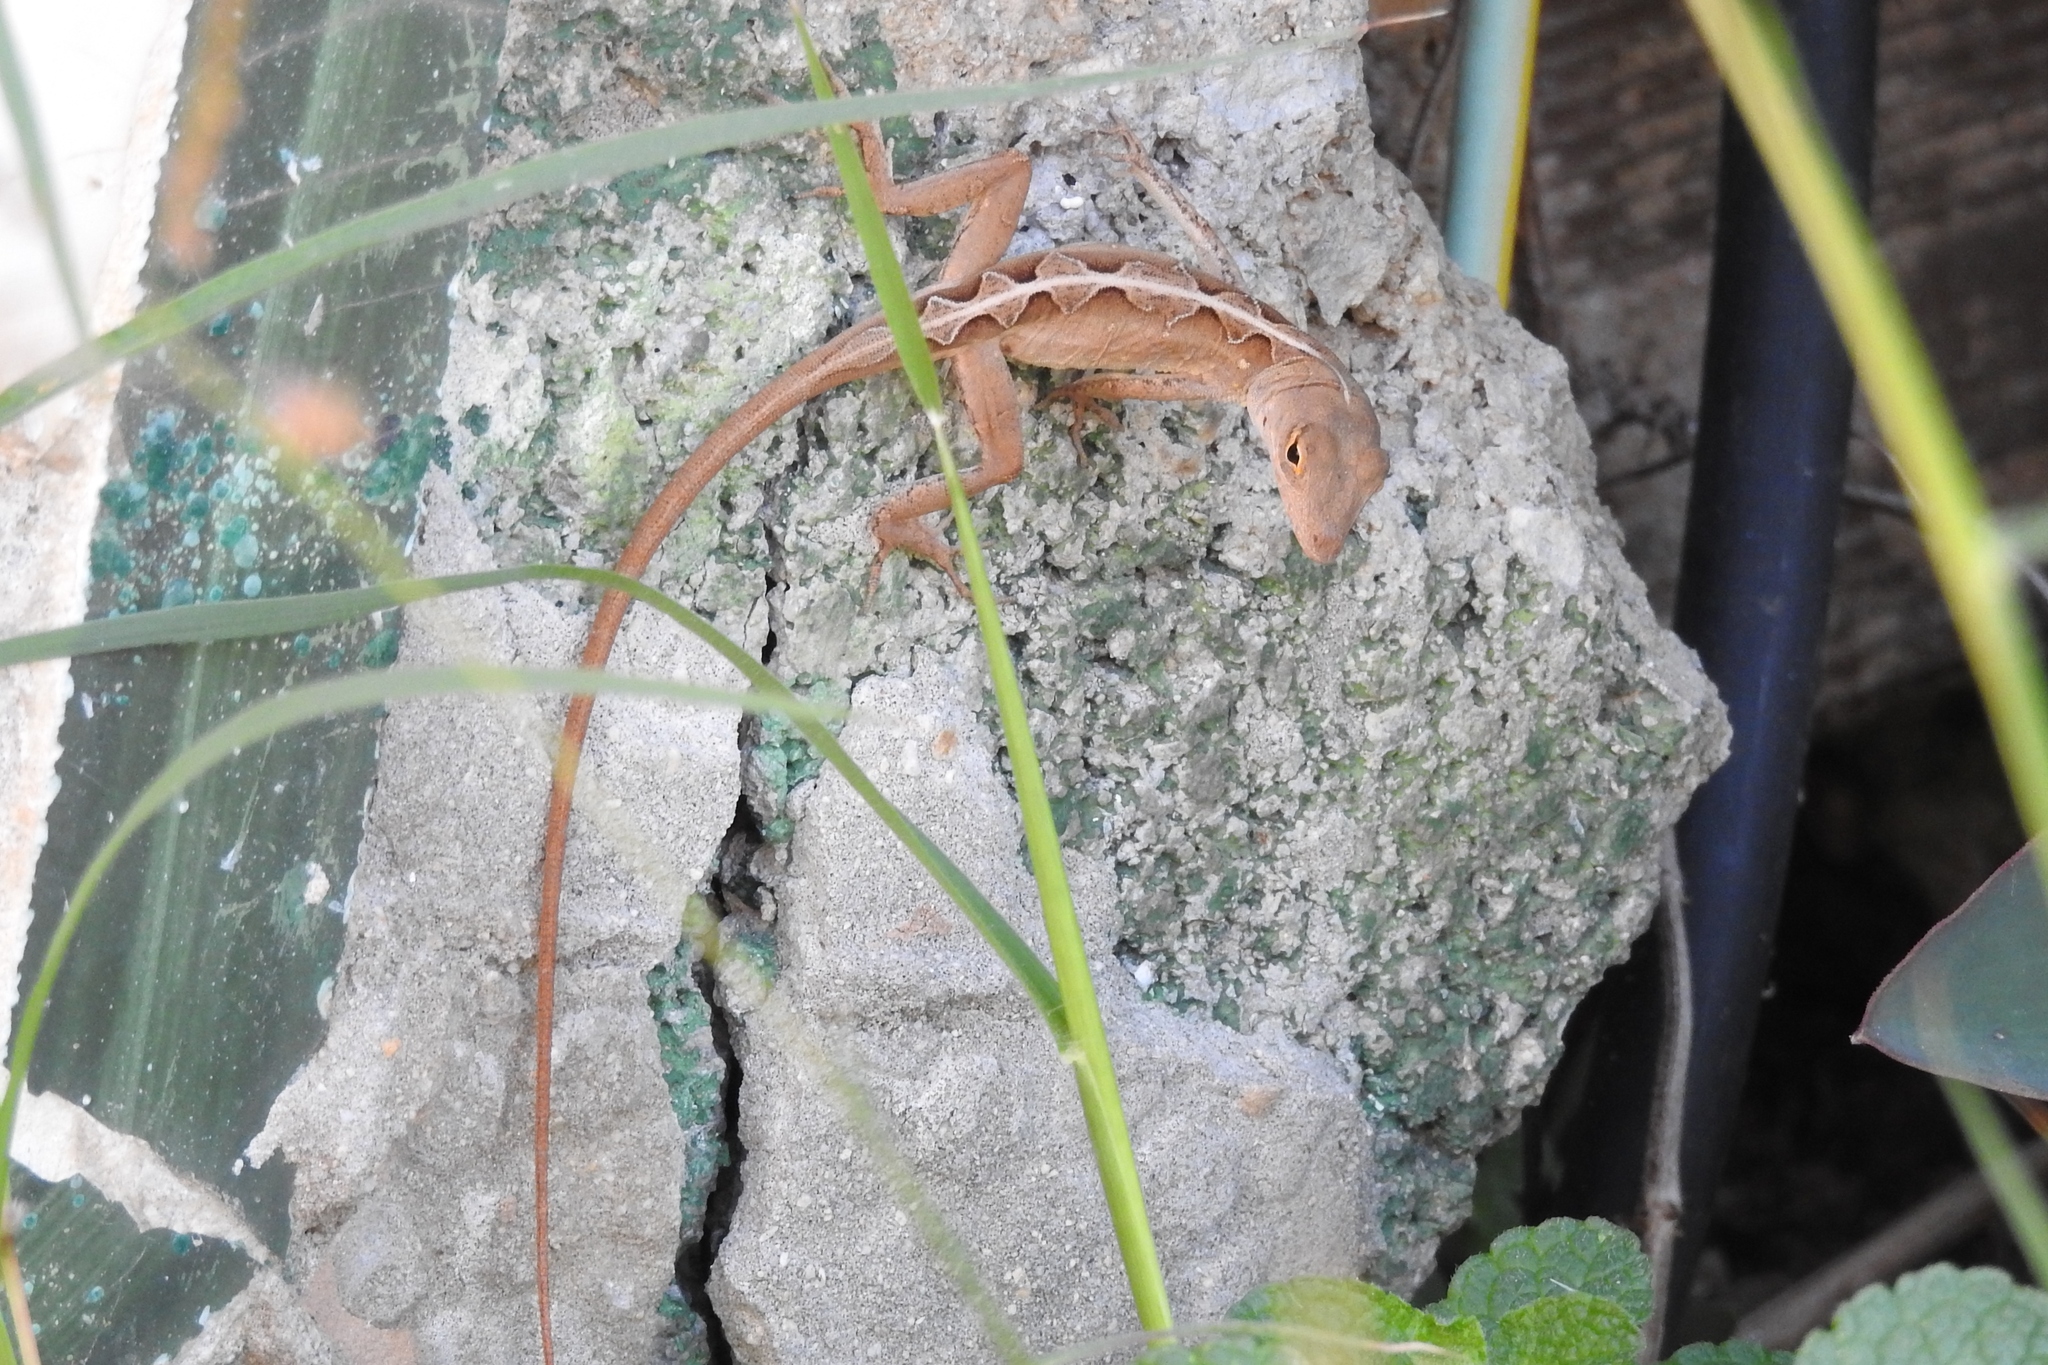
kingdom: Animalia
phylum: Chordata
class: Squamata
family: Dactyloidae
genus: Anolis
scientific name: Anolis sagrei
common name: Brown anole
